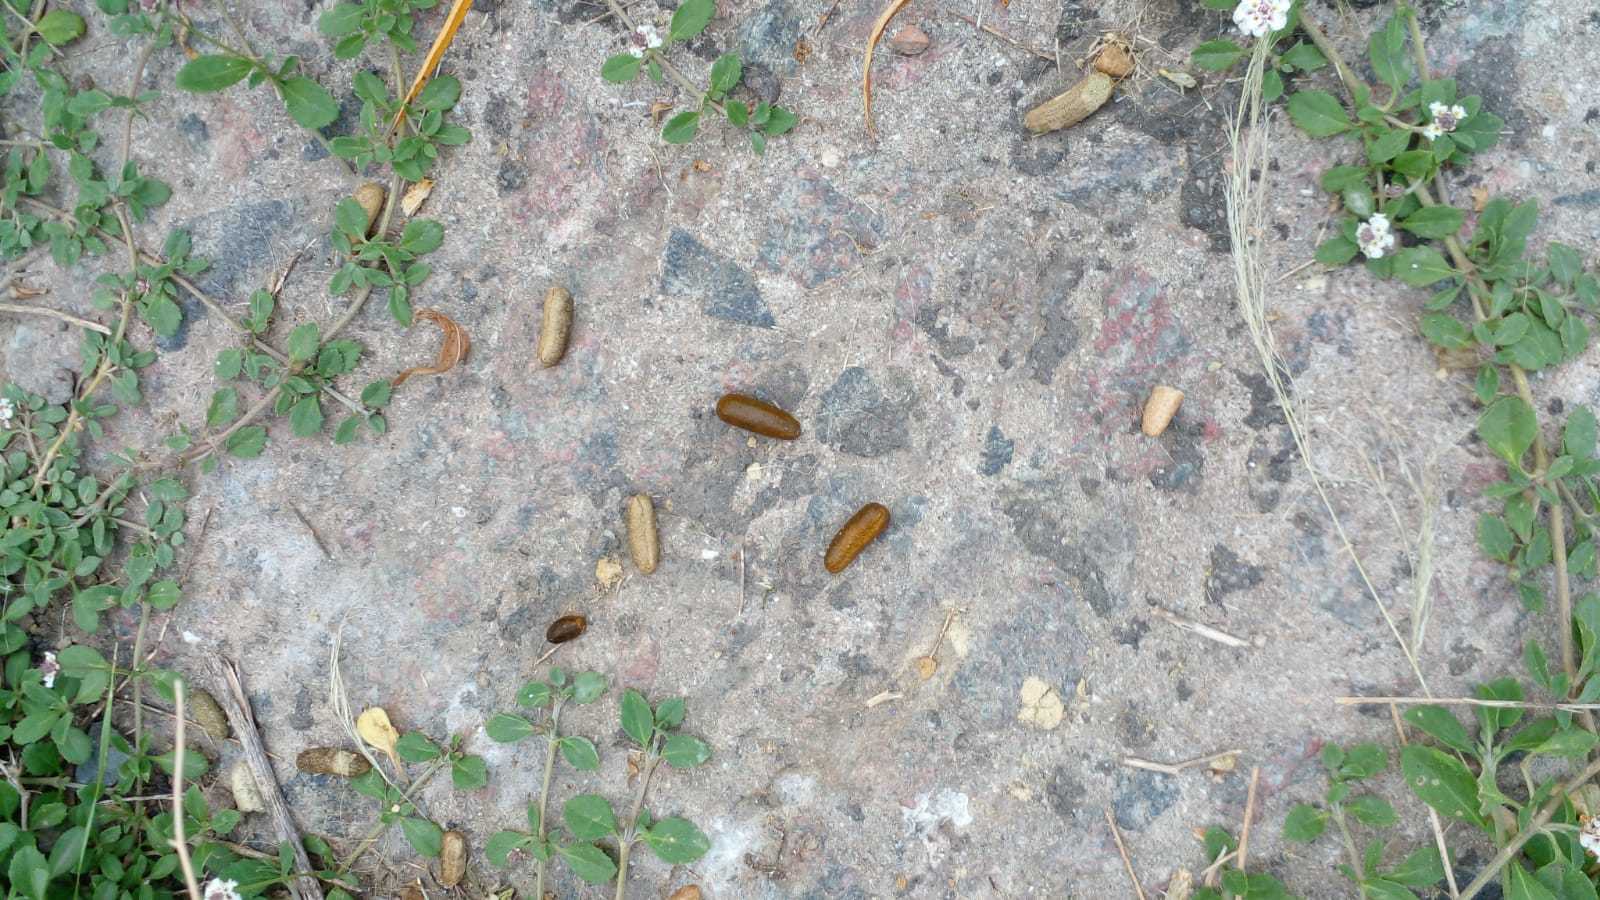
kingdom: Animalia
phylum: Chordata
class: Mammalia
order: Rodentia
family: Caviidae
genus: Cavia
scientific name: Cavia aperea
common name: Brazilian guinea pig
